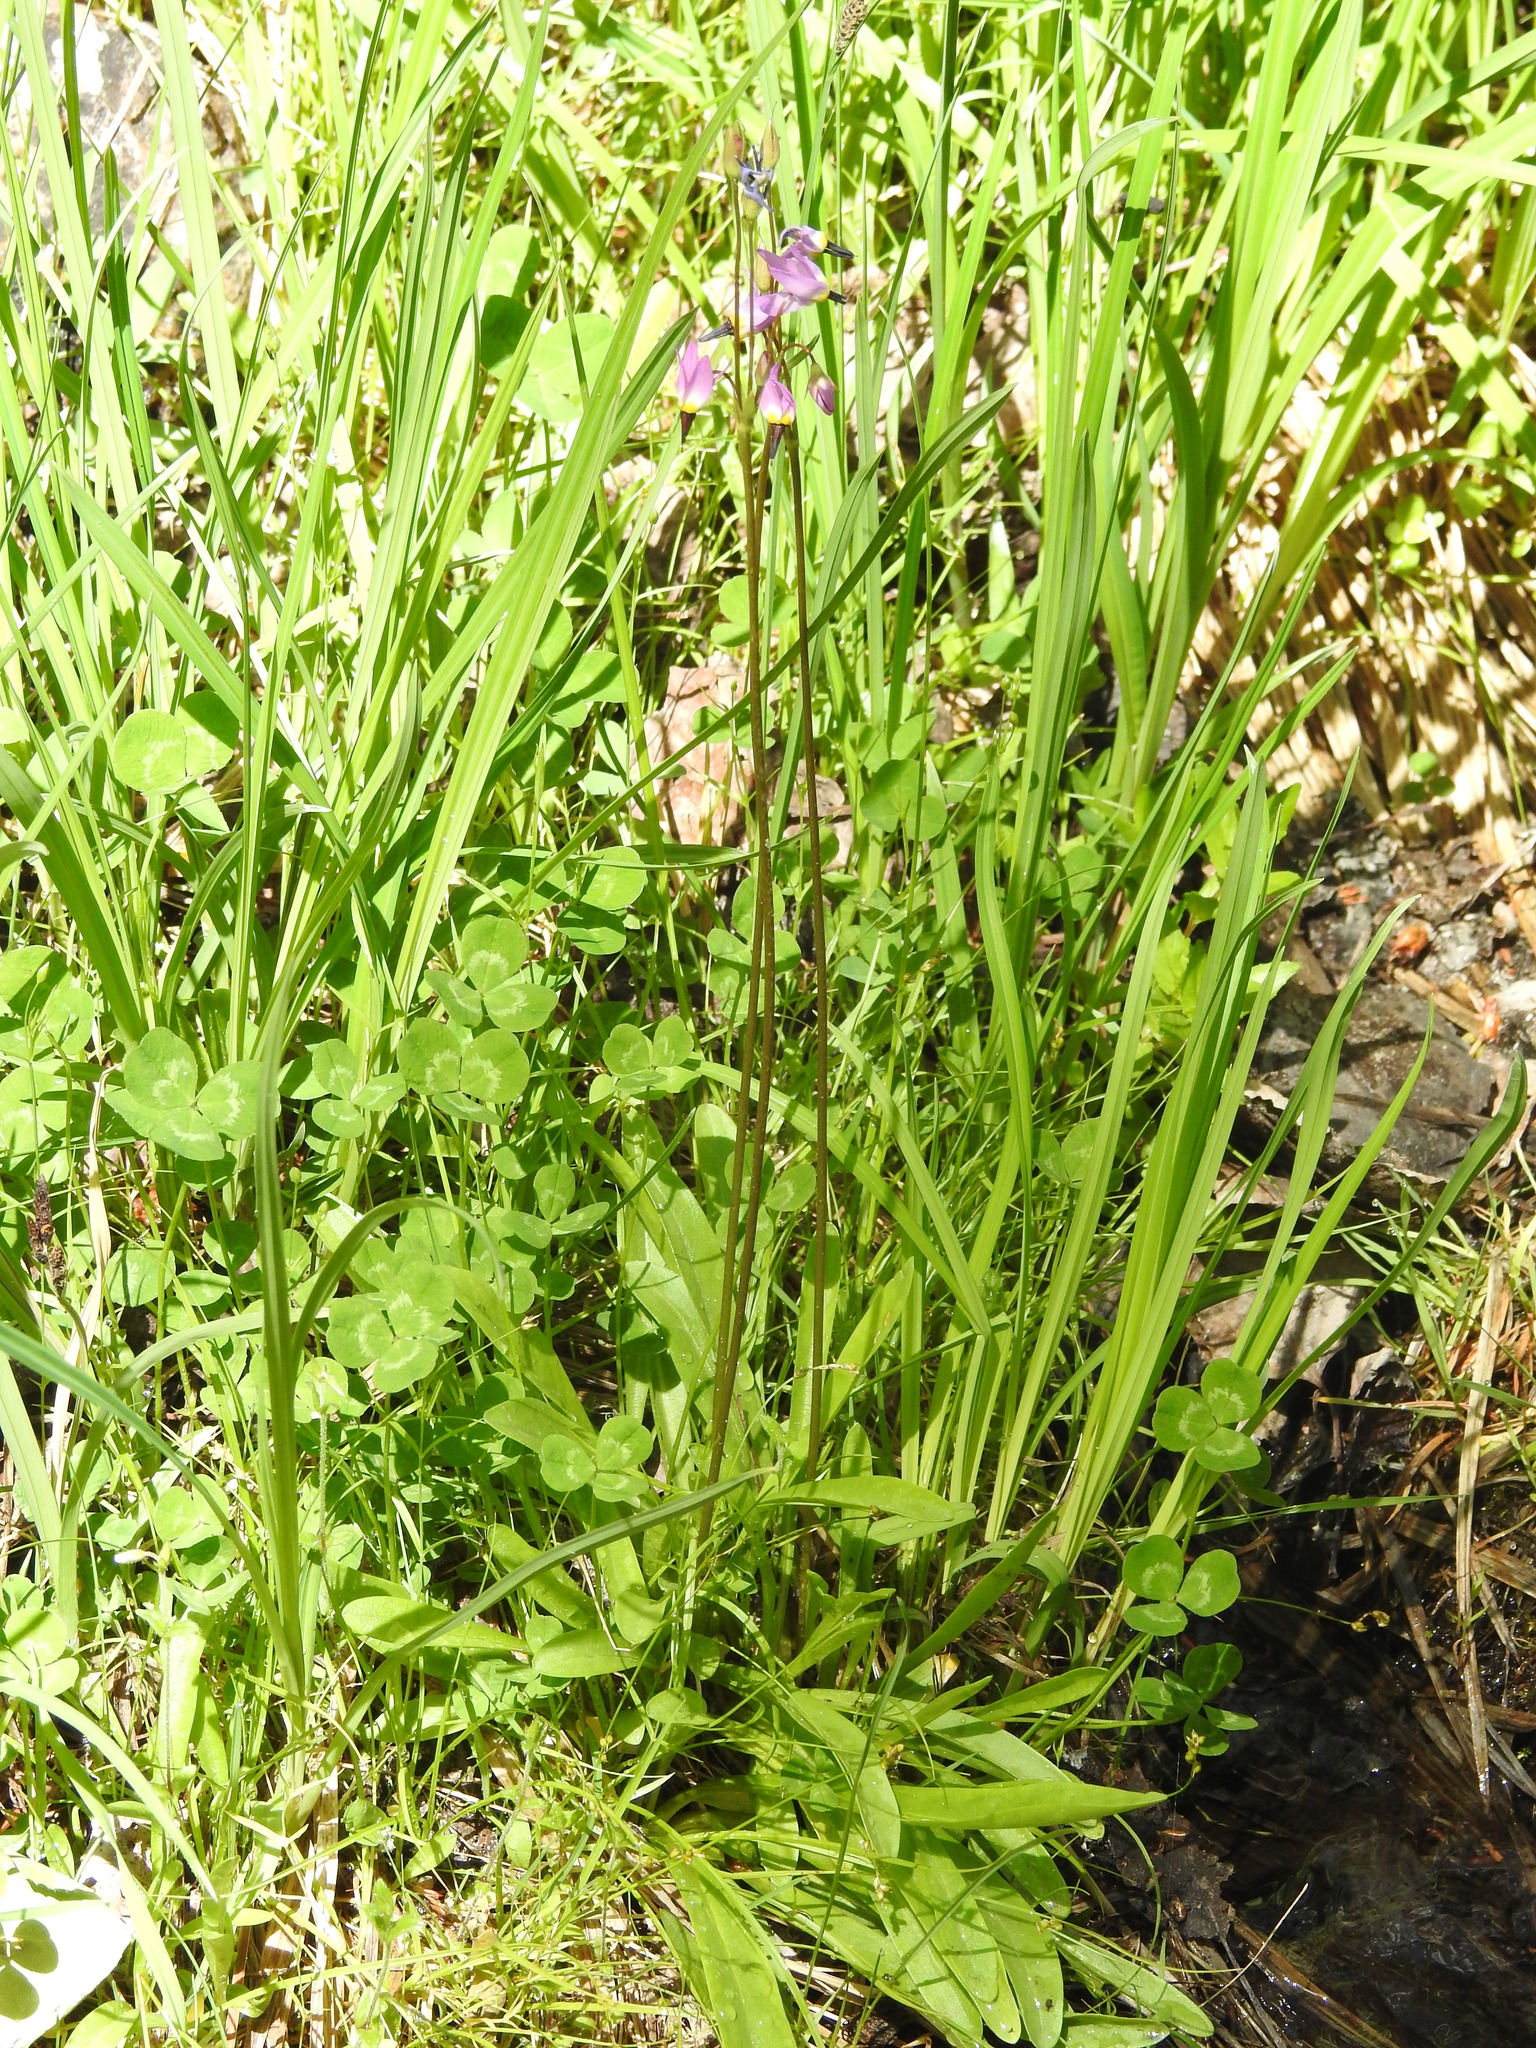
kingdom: Plantae
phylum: Tracheophyta
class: Magnoliopsida
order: Ericales
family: Primulaceae
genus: Dodecatheon
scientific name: Dodecatheon alpinum
